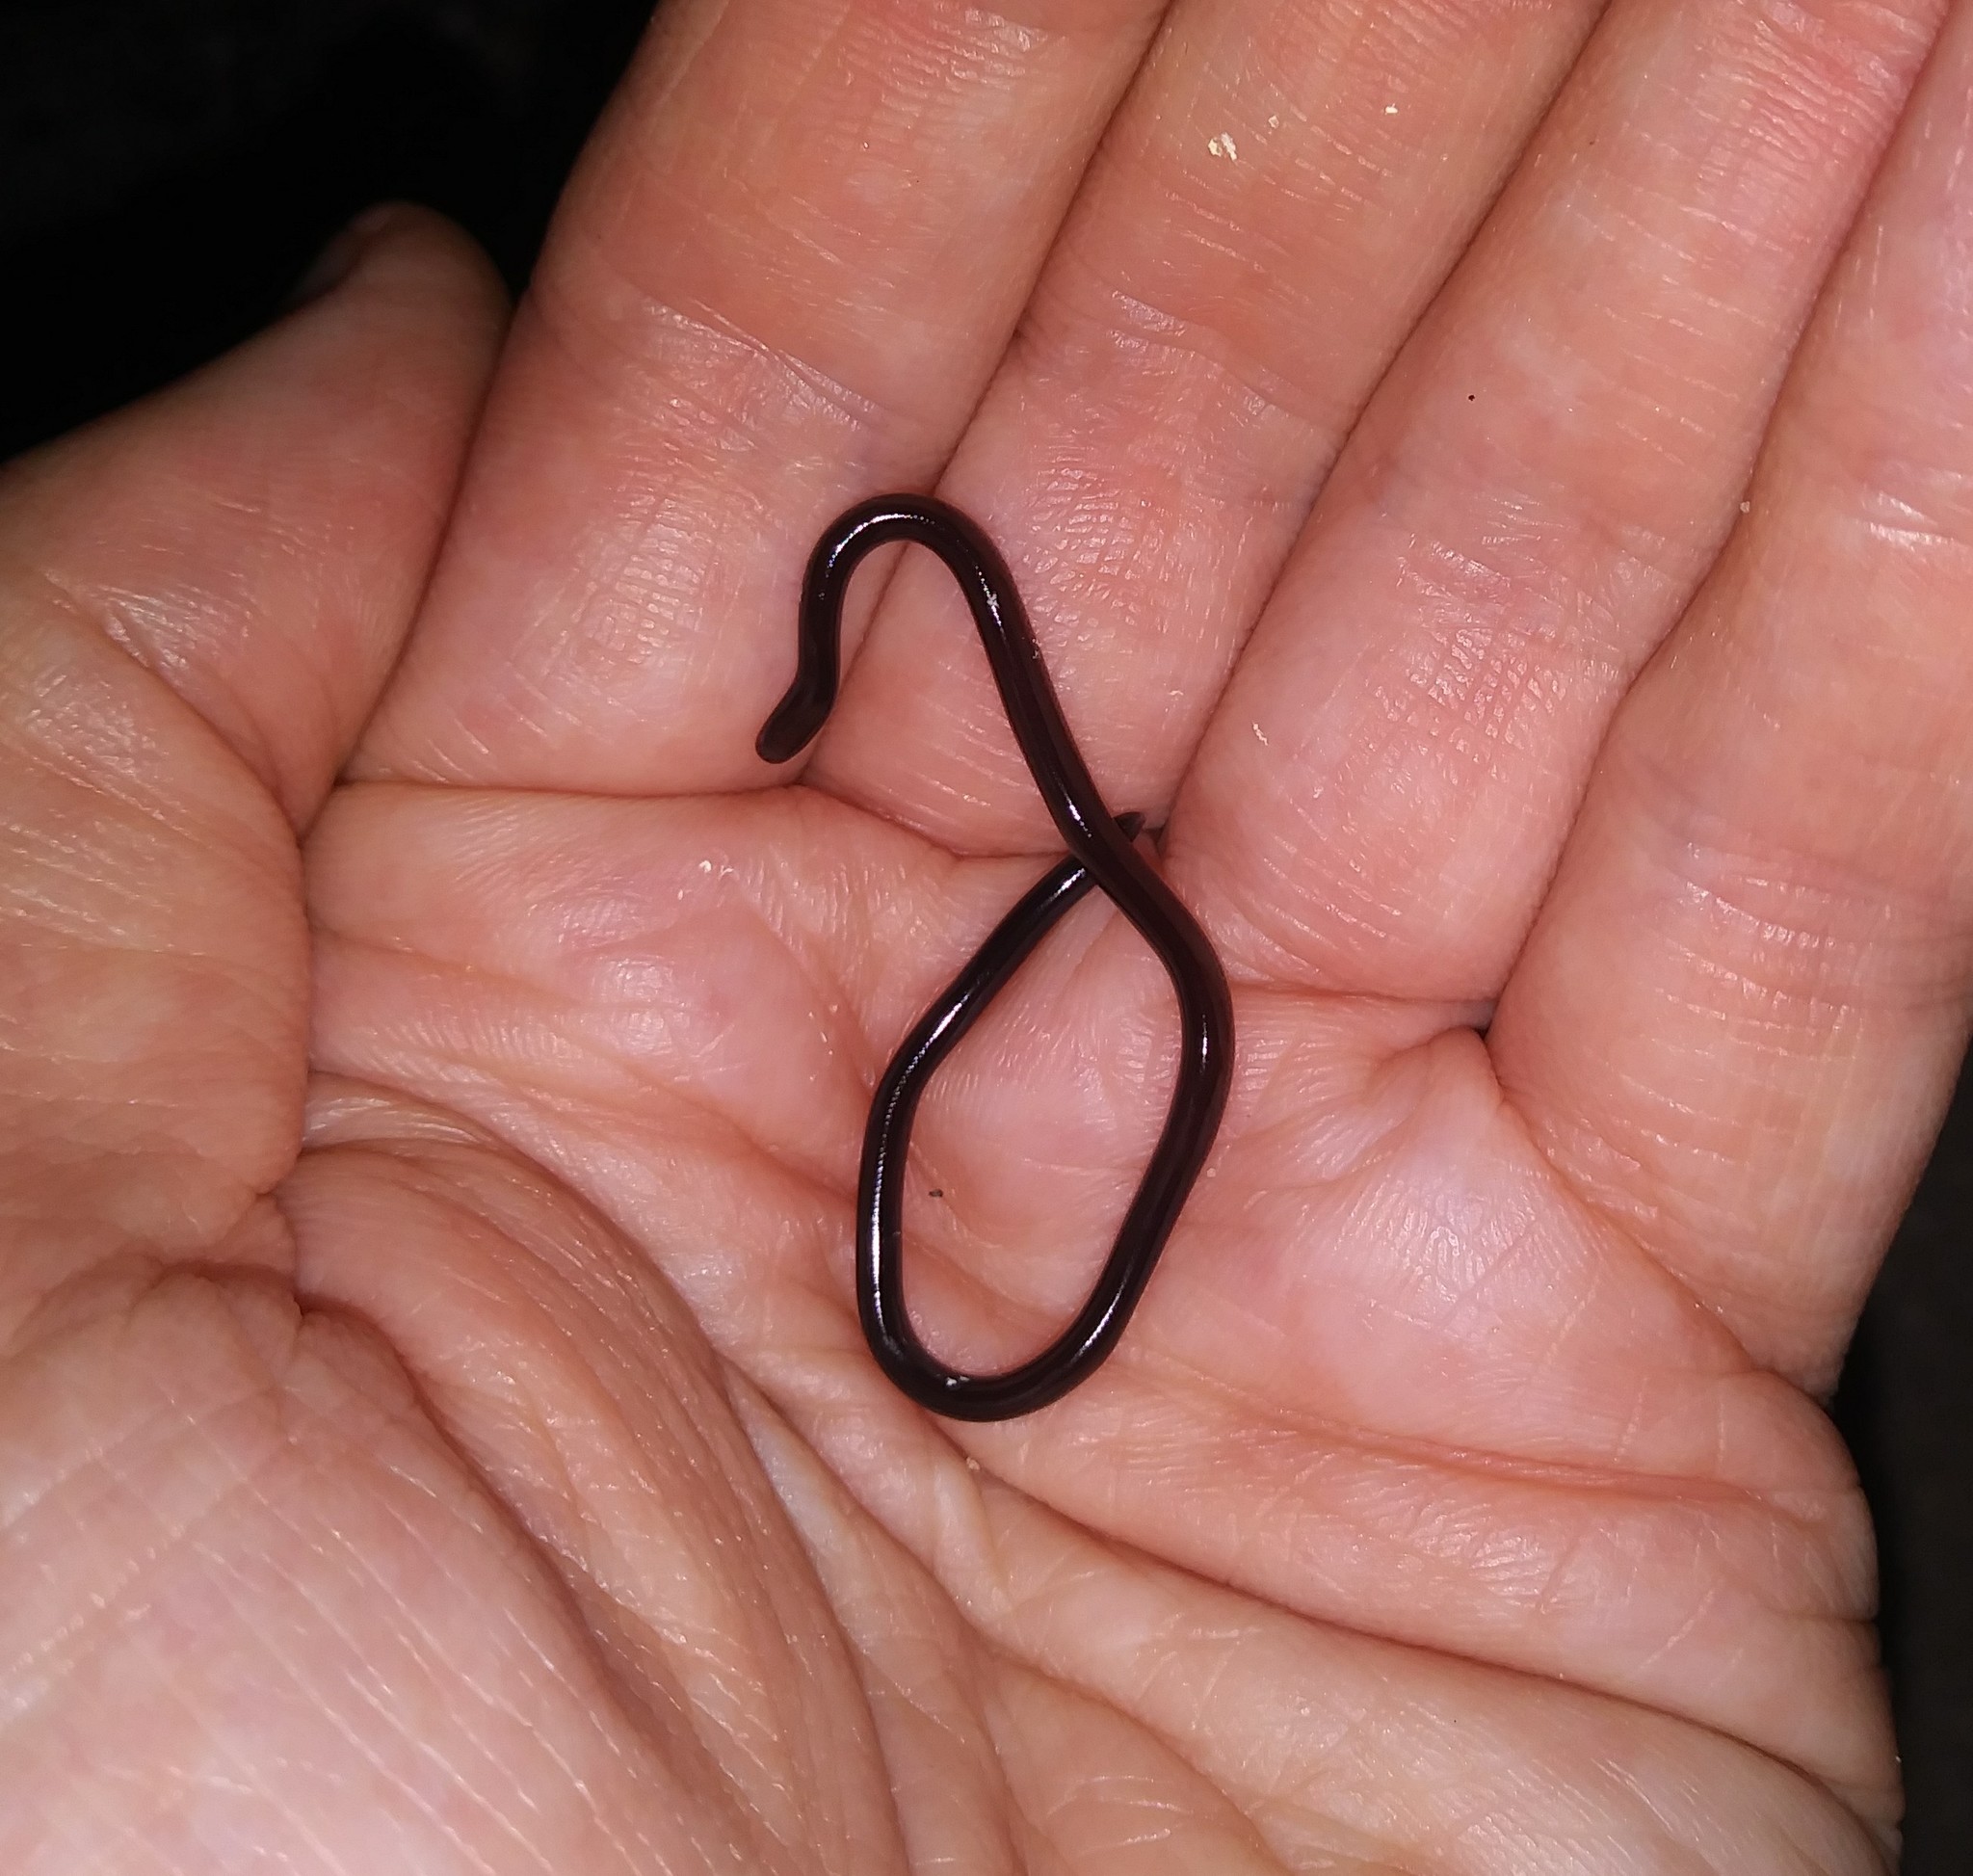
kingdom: Animalia
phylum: Chordata
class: Squamata
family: Typhlopidae
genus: Indotyphlops
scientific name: Indotyphlops braminus
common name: Brahminy blindsnake
